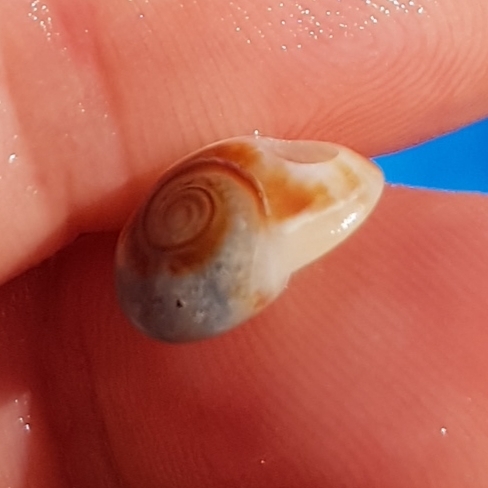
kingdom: Animalia
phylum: Mollusca
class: Gastropoda
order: Neogastropoda
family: Nassariidae
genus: Tritia
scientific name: Tritia neritea
